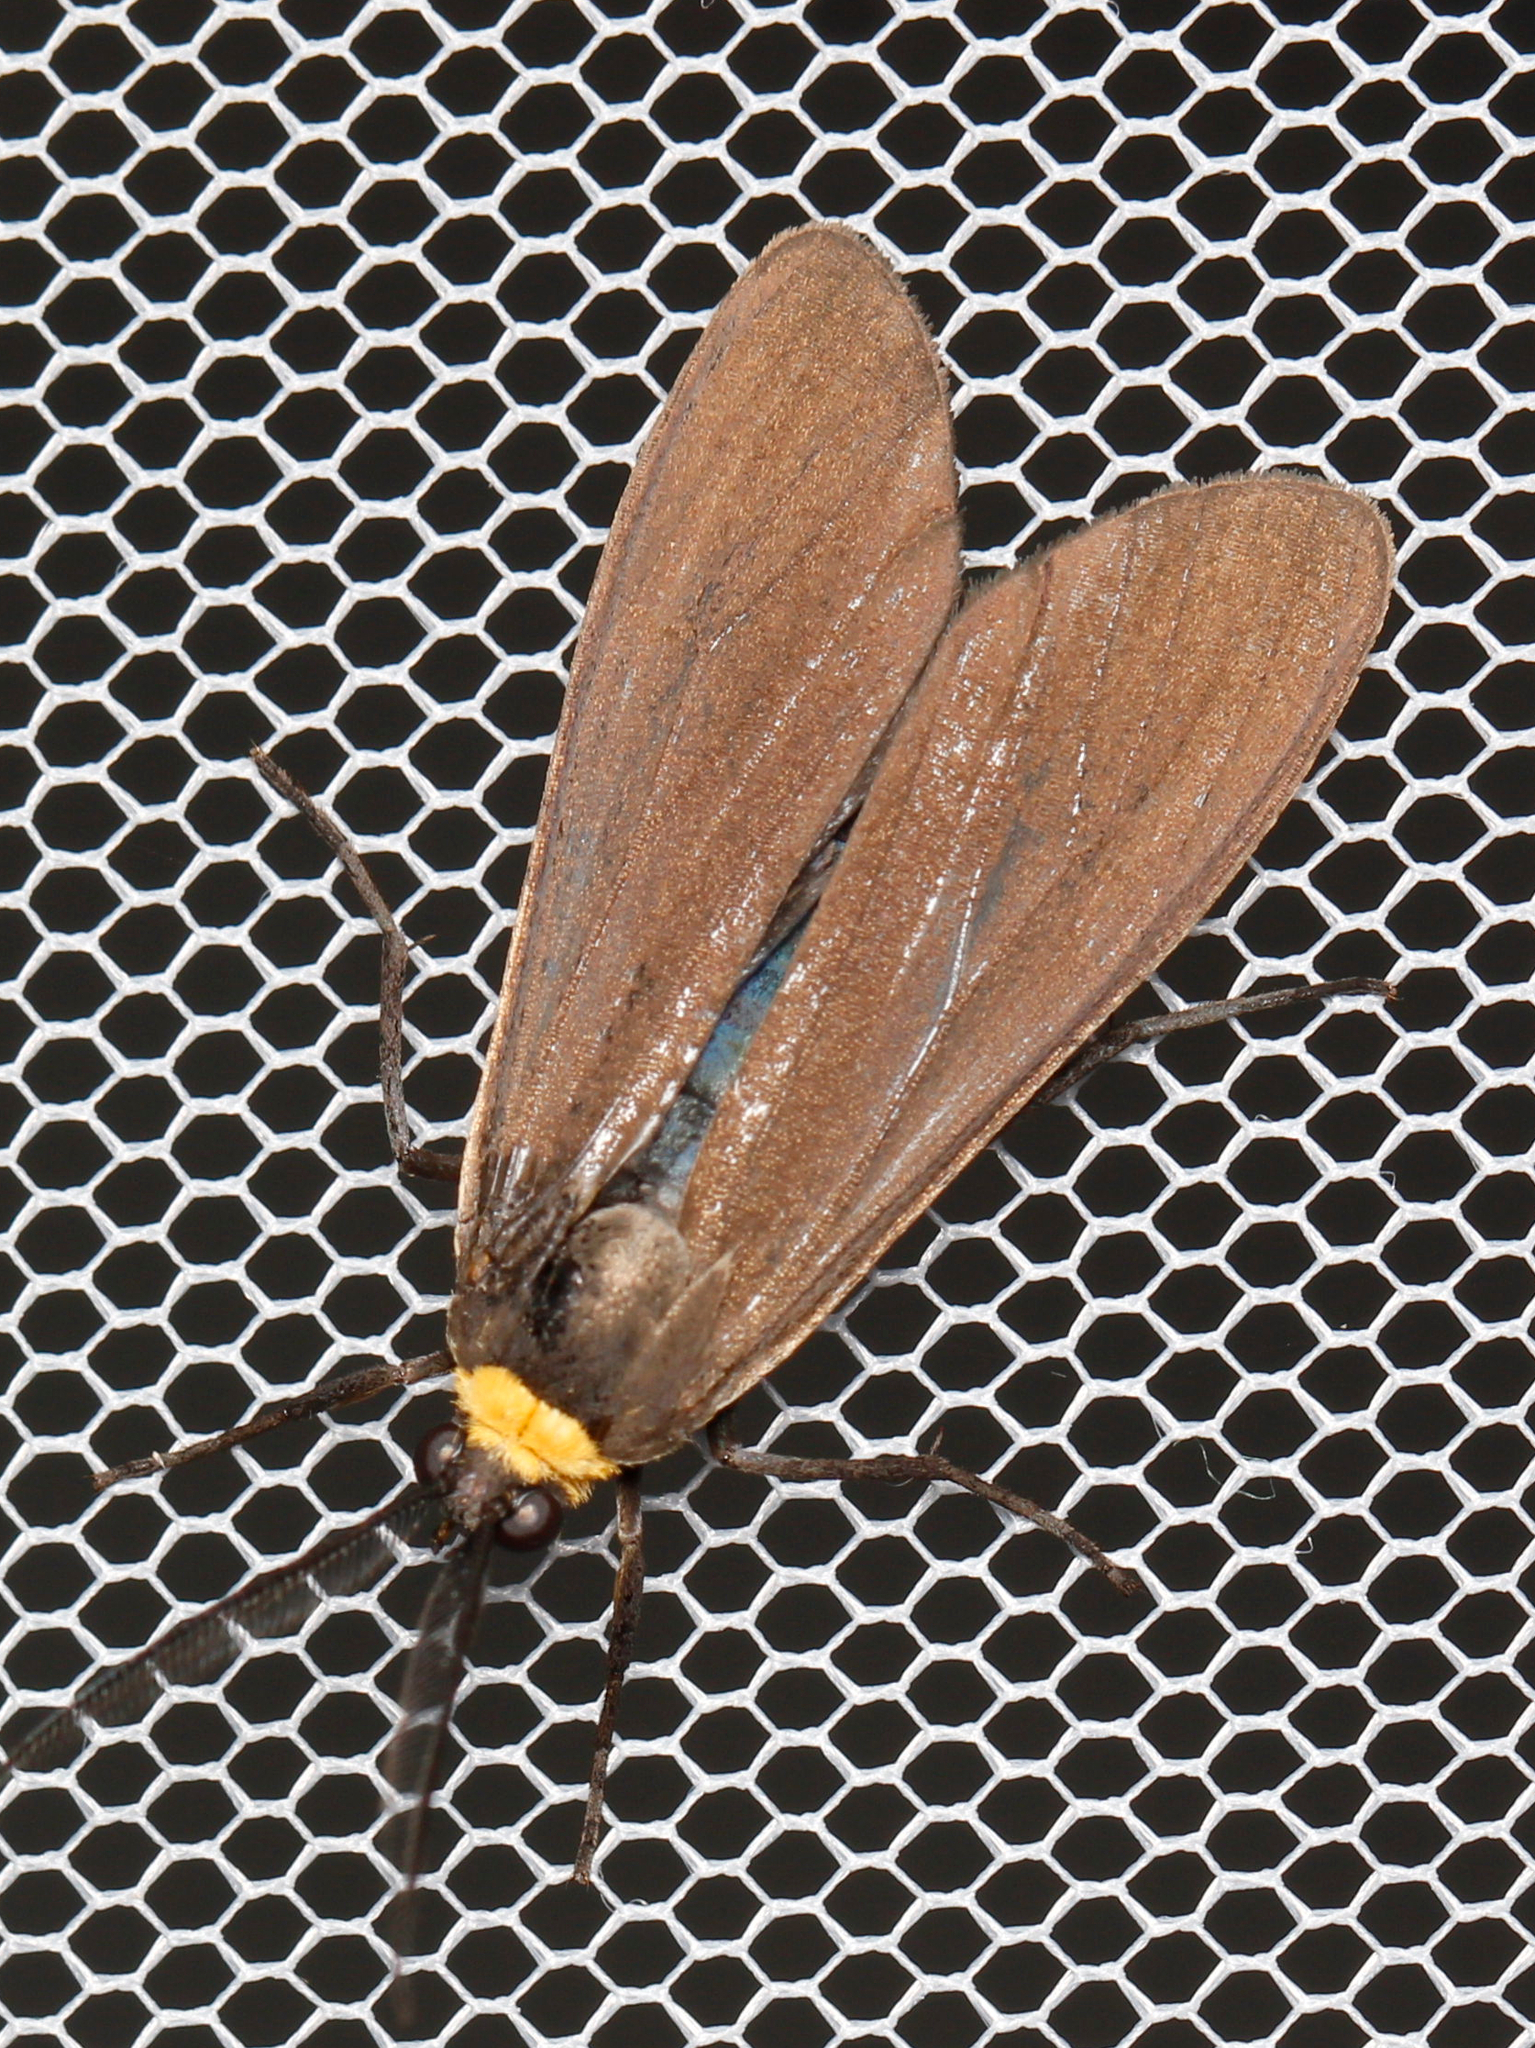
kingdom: Animalia
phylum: Arthropoda
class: Insecta
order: Lepidoptera
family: Erebidae
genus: Cisseps
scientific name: Cisseps fulvicollis
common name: Yellow-collared scape moth
